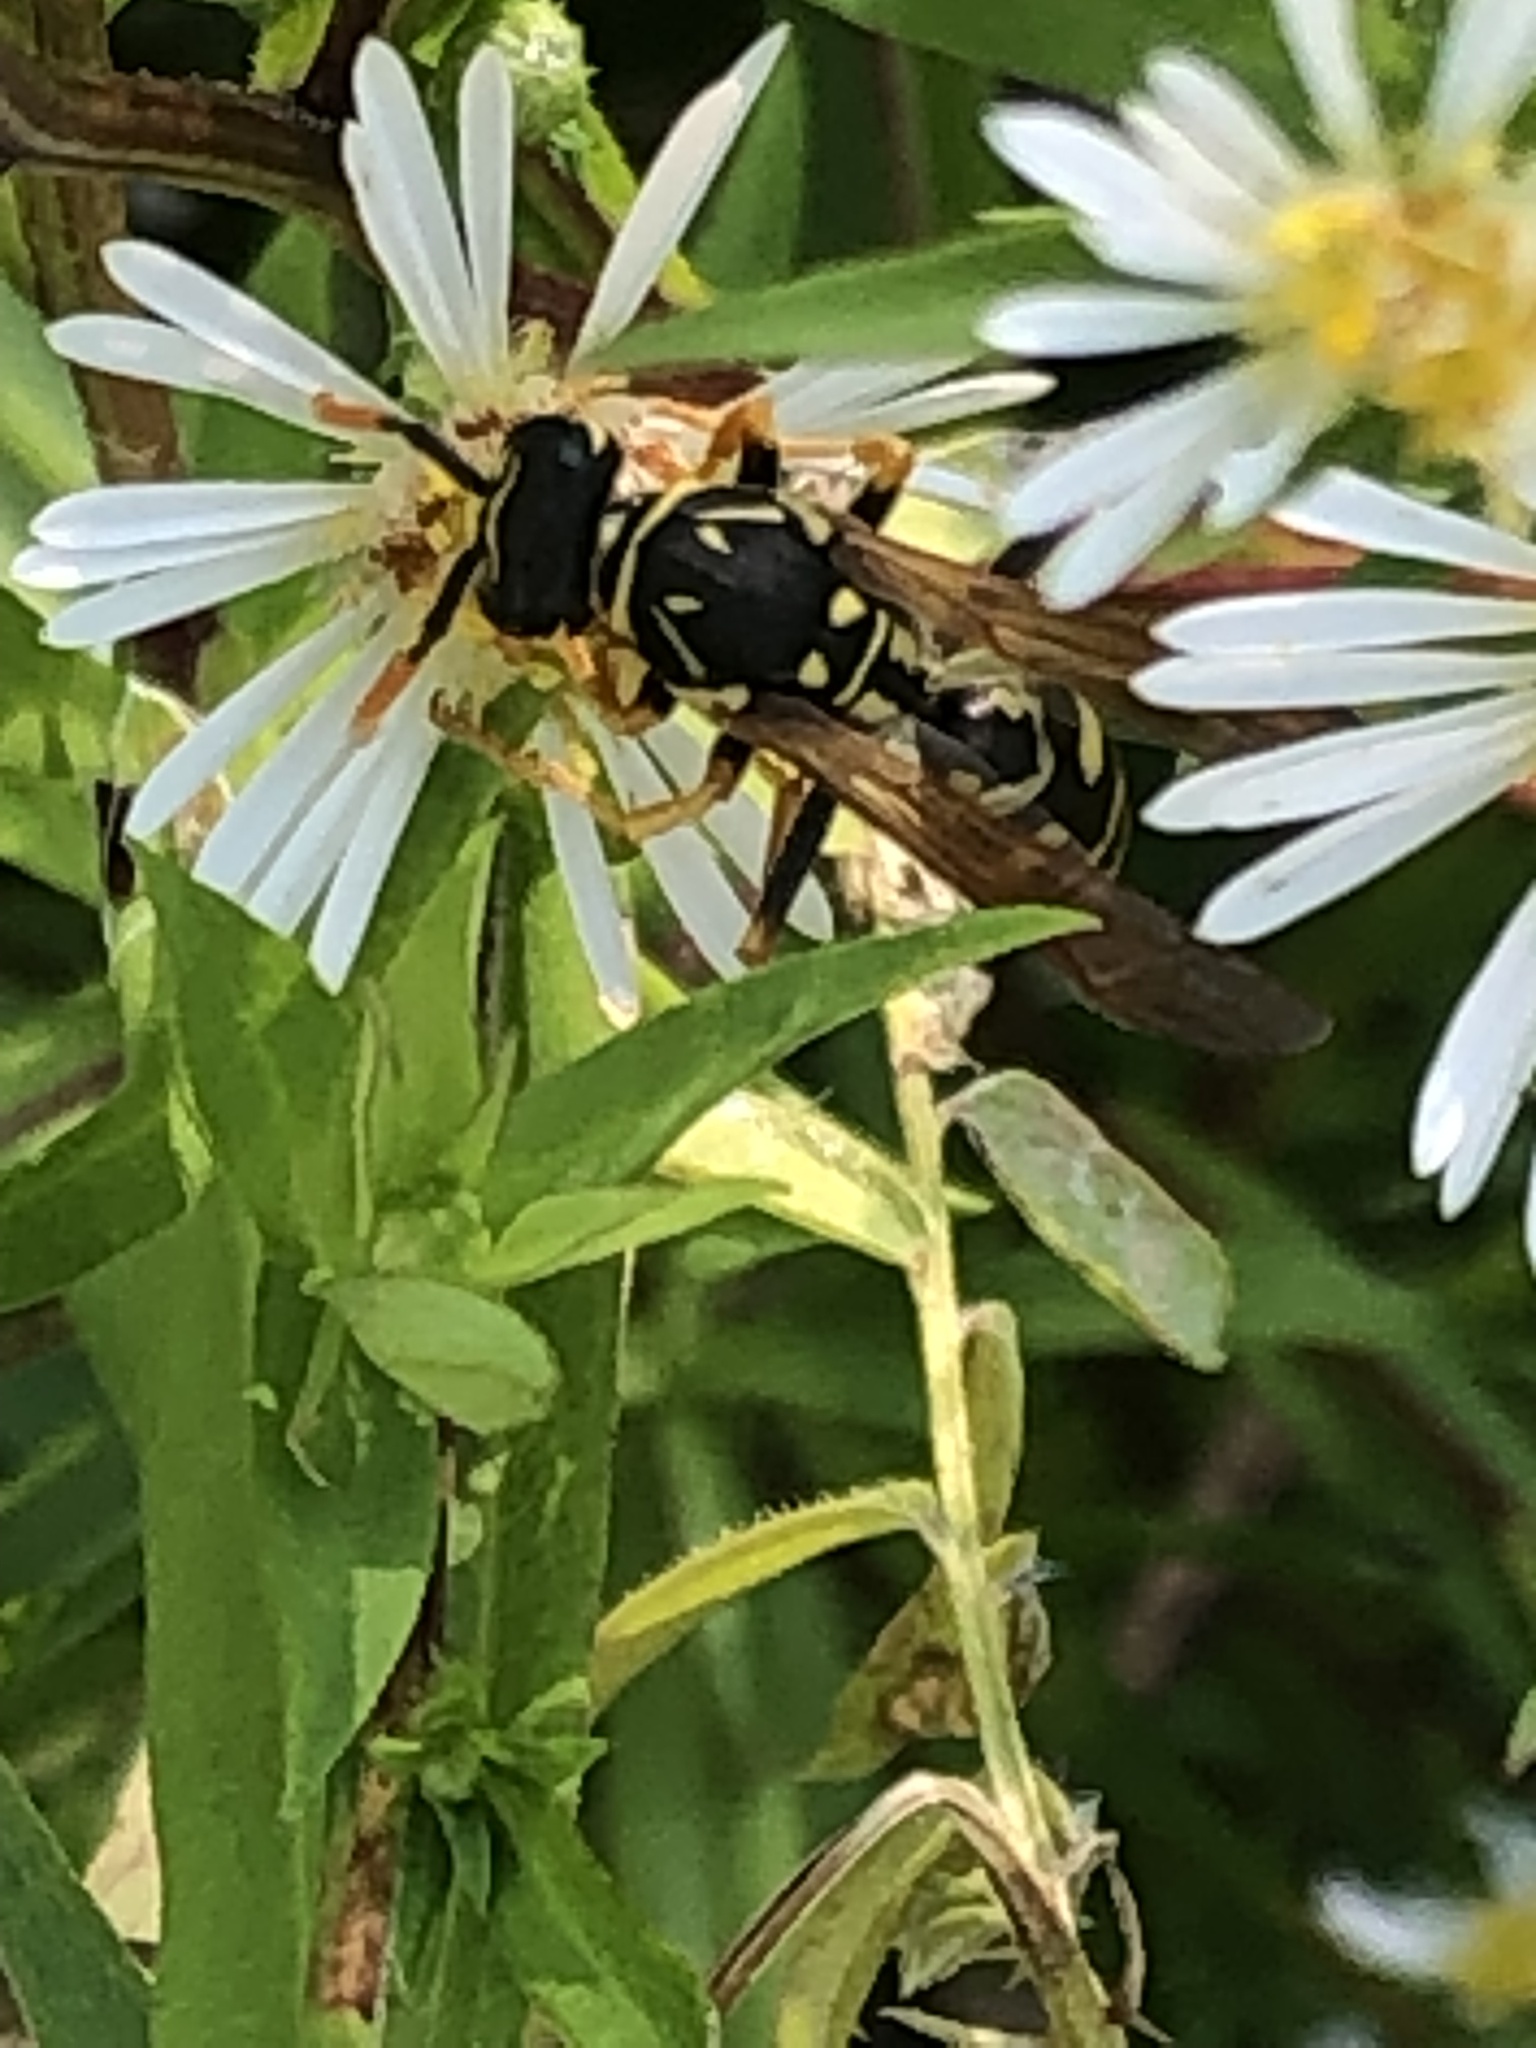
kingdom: Animalia
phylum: Arthropoda
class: Insecta
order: Hymenoptera
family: Eumenidae
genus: Polistes
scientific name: Polistes dominula
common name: Paper wasp
